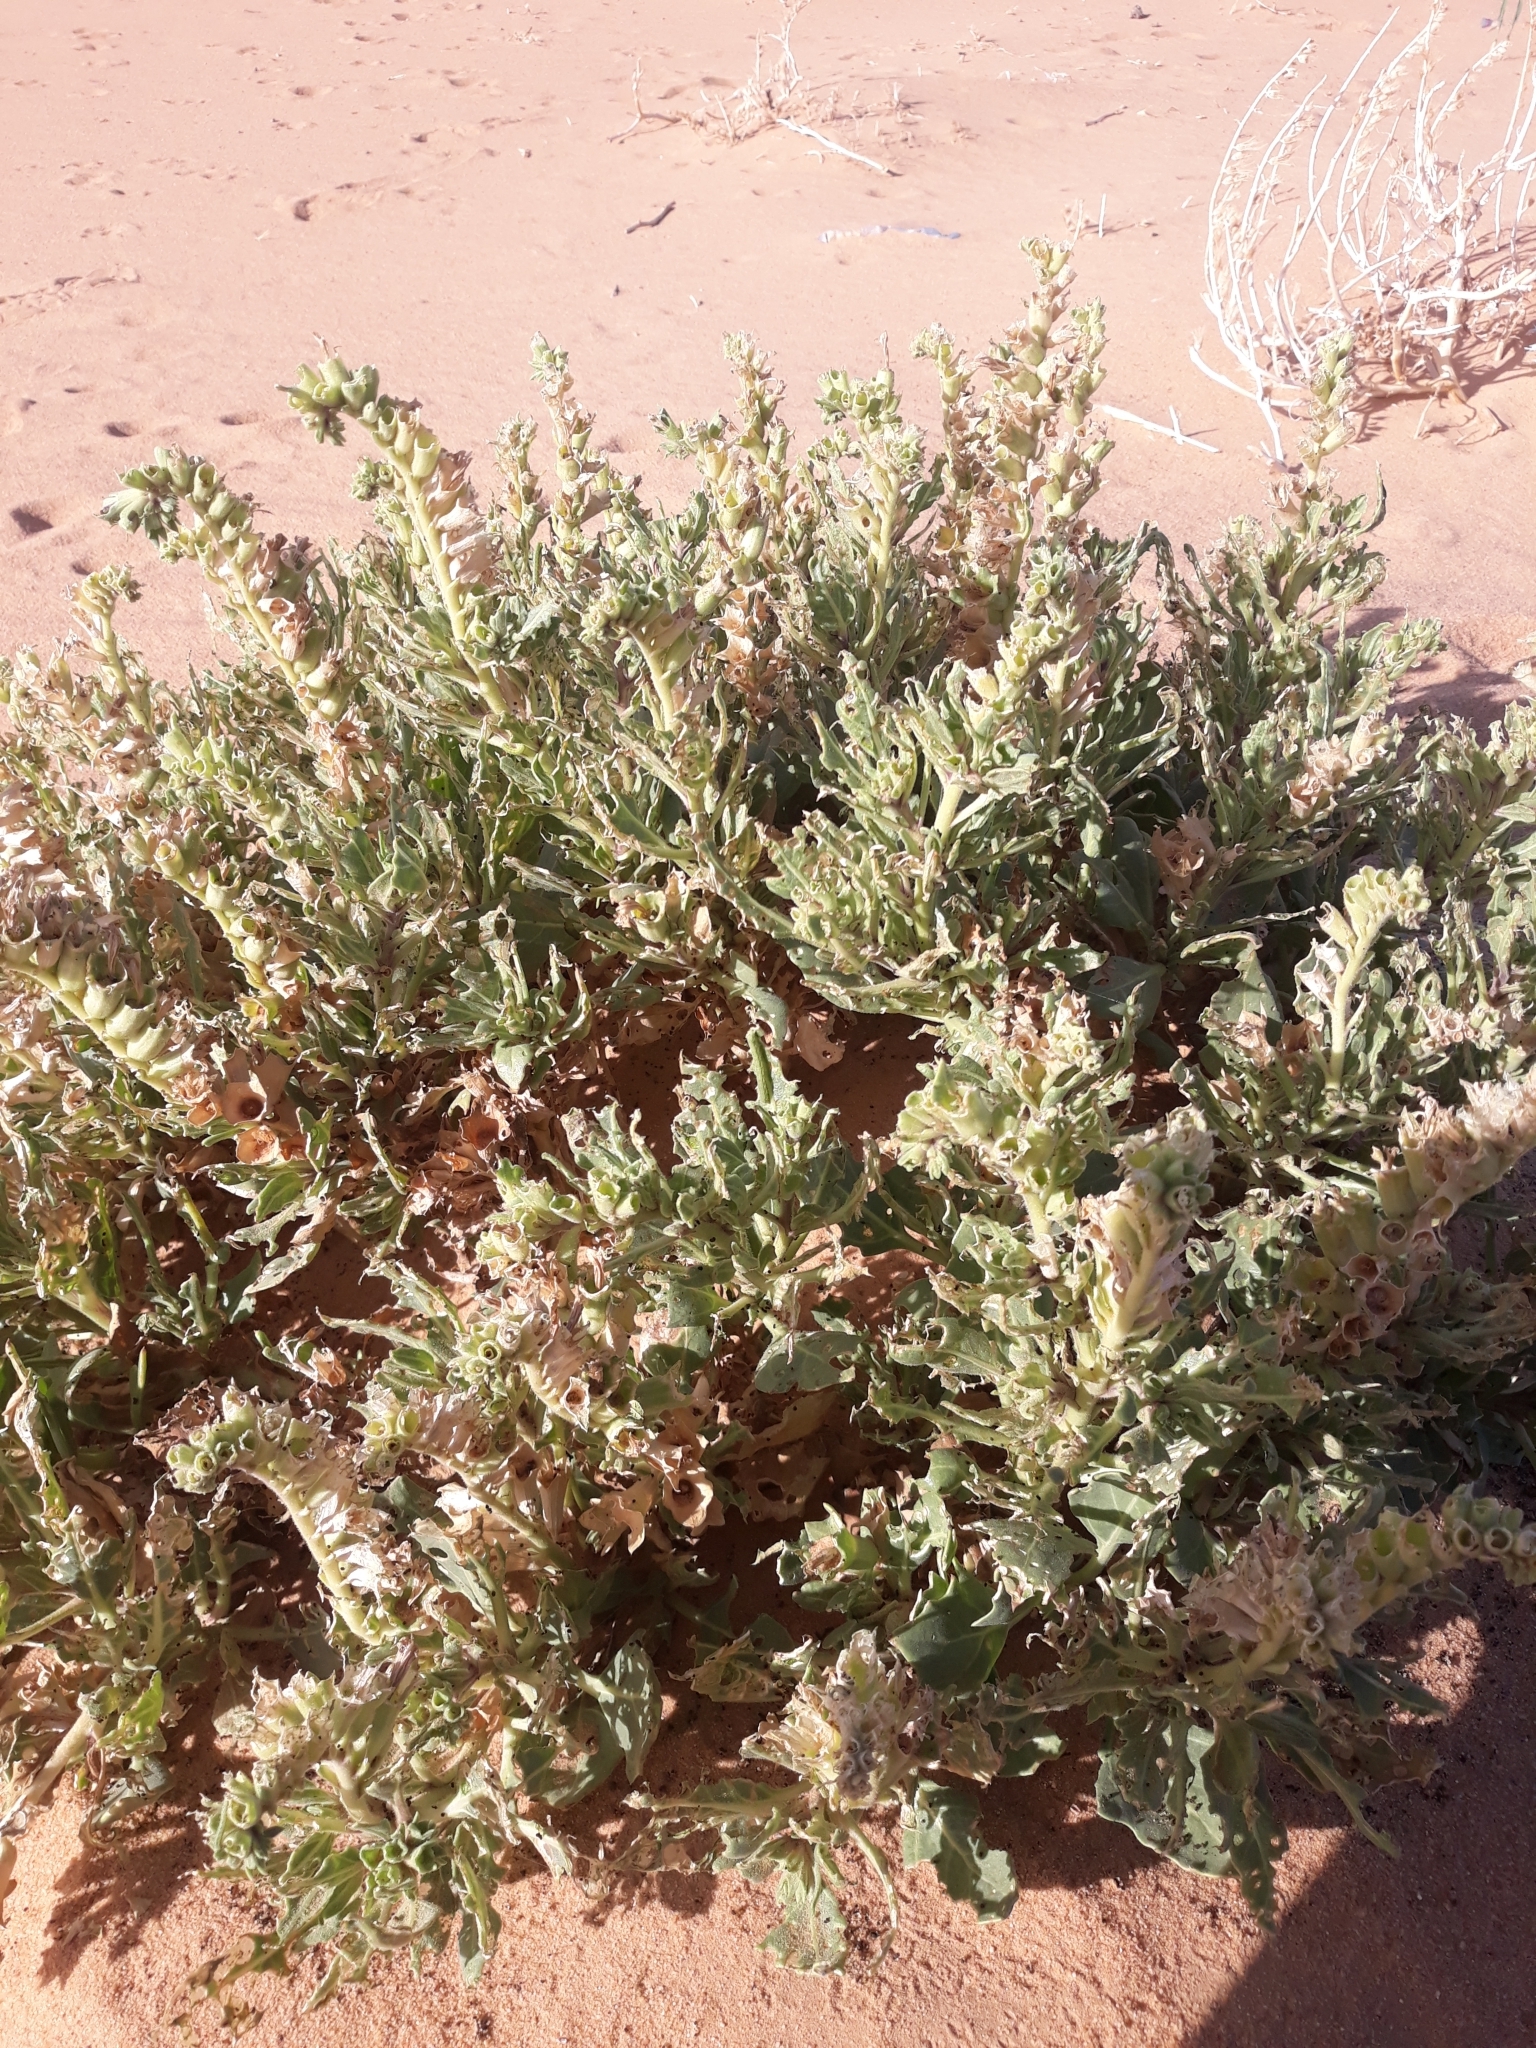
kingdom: Plantae
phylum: Tracheophyta
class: Magnoliopsida
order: Solanales
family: Solanaceae
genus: Hyoscyamus
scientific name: Hyoscyamus muticus
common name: Henbane
